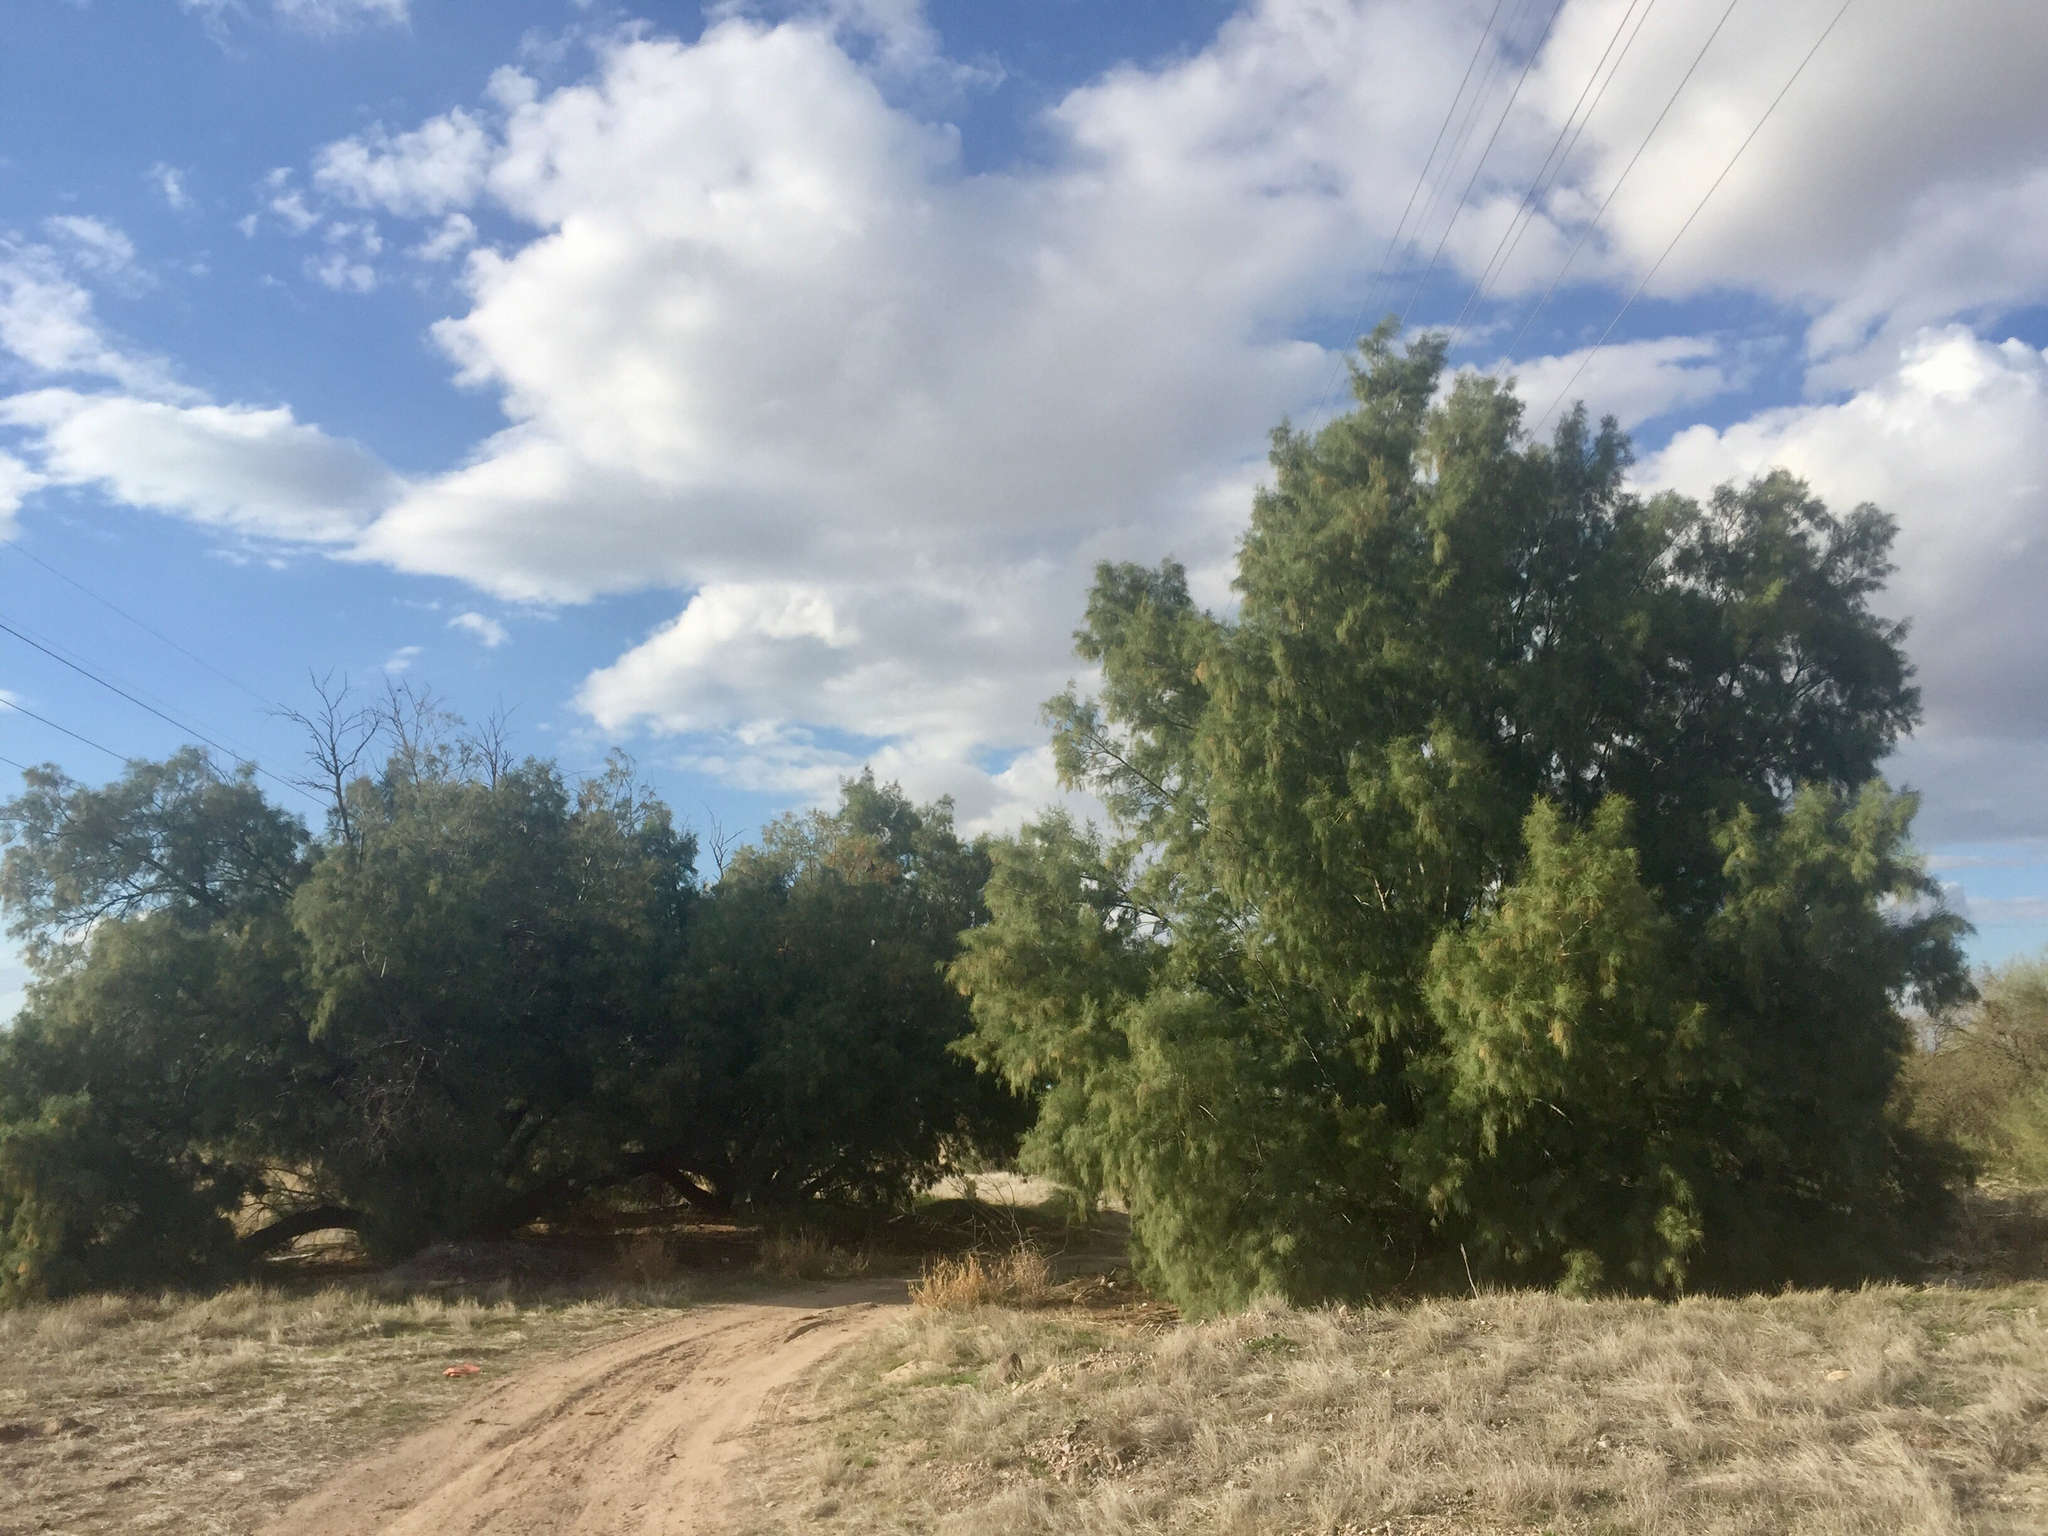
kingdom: Plantae
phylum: Tracheophyta
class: Magnoliopsida
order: Caryophyllales
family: Tamaricaceae
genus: Tamarix
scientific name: Tamarix aphylla
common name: Athel tamarisk
